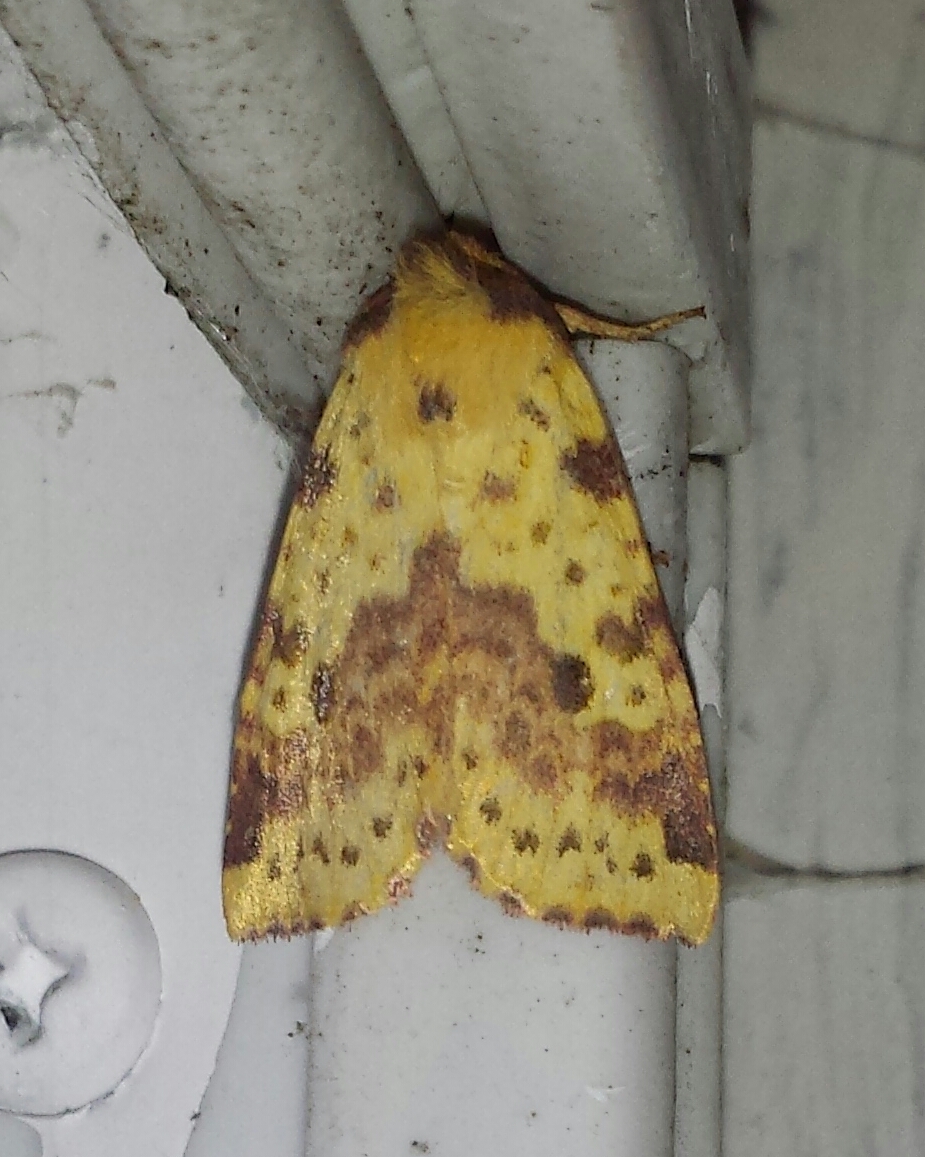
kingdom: Animalia
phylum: Arthropoda
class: Insecta
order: Lepidoptera
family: Noctuidae
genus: Xanthia
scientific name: Xanthia tatago
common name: Pink-banded sallow
